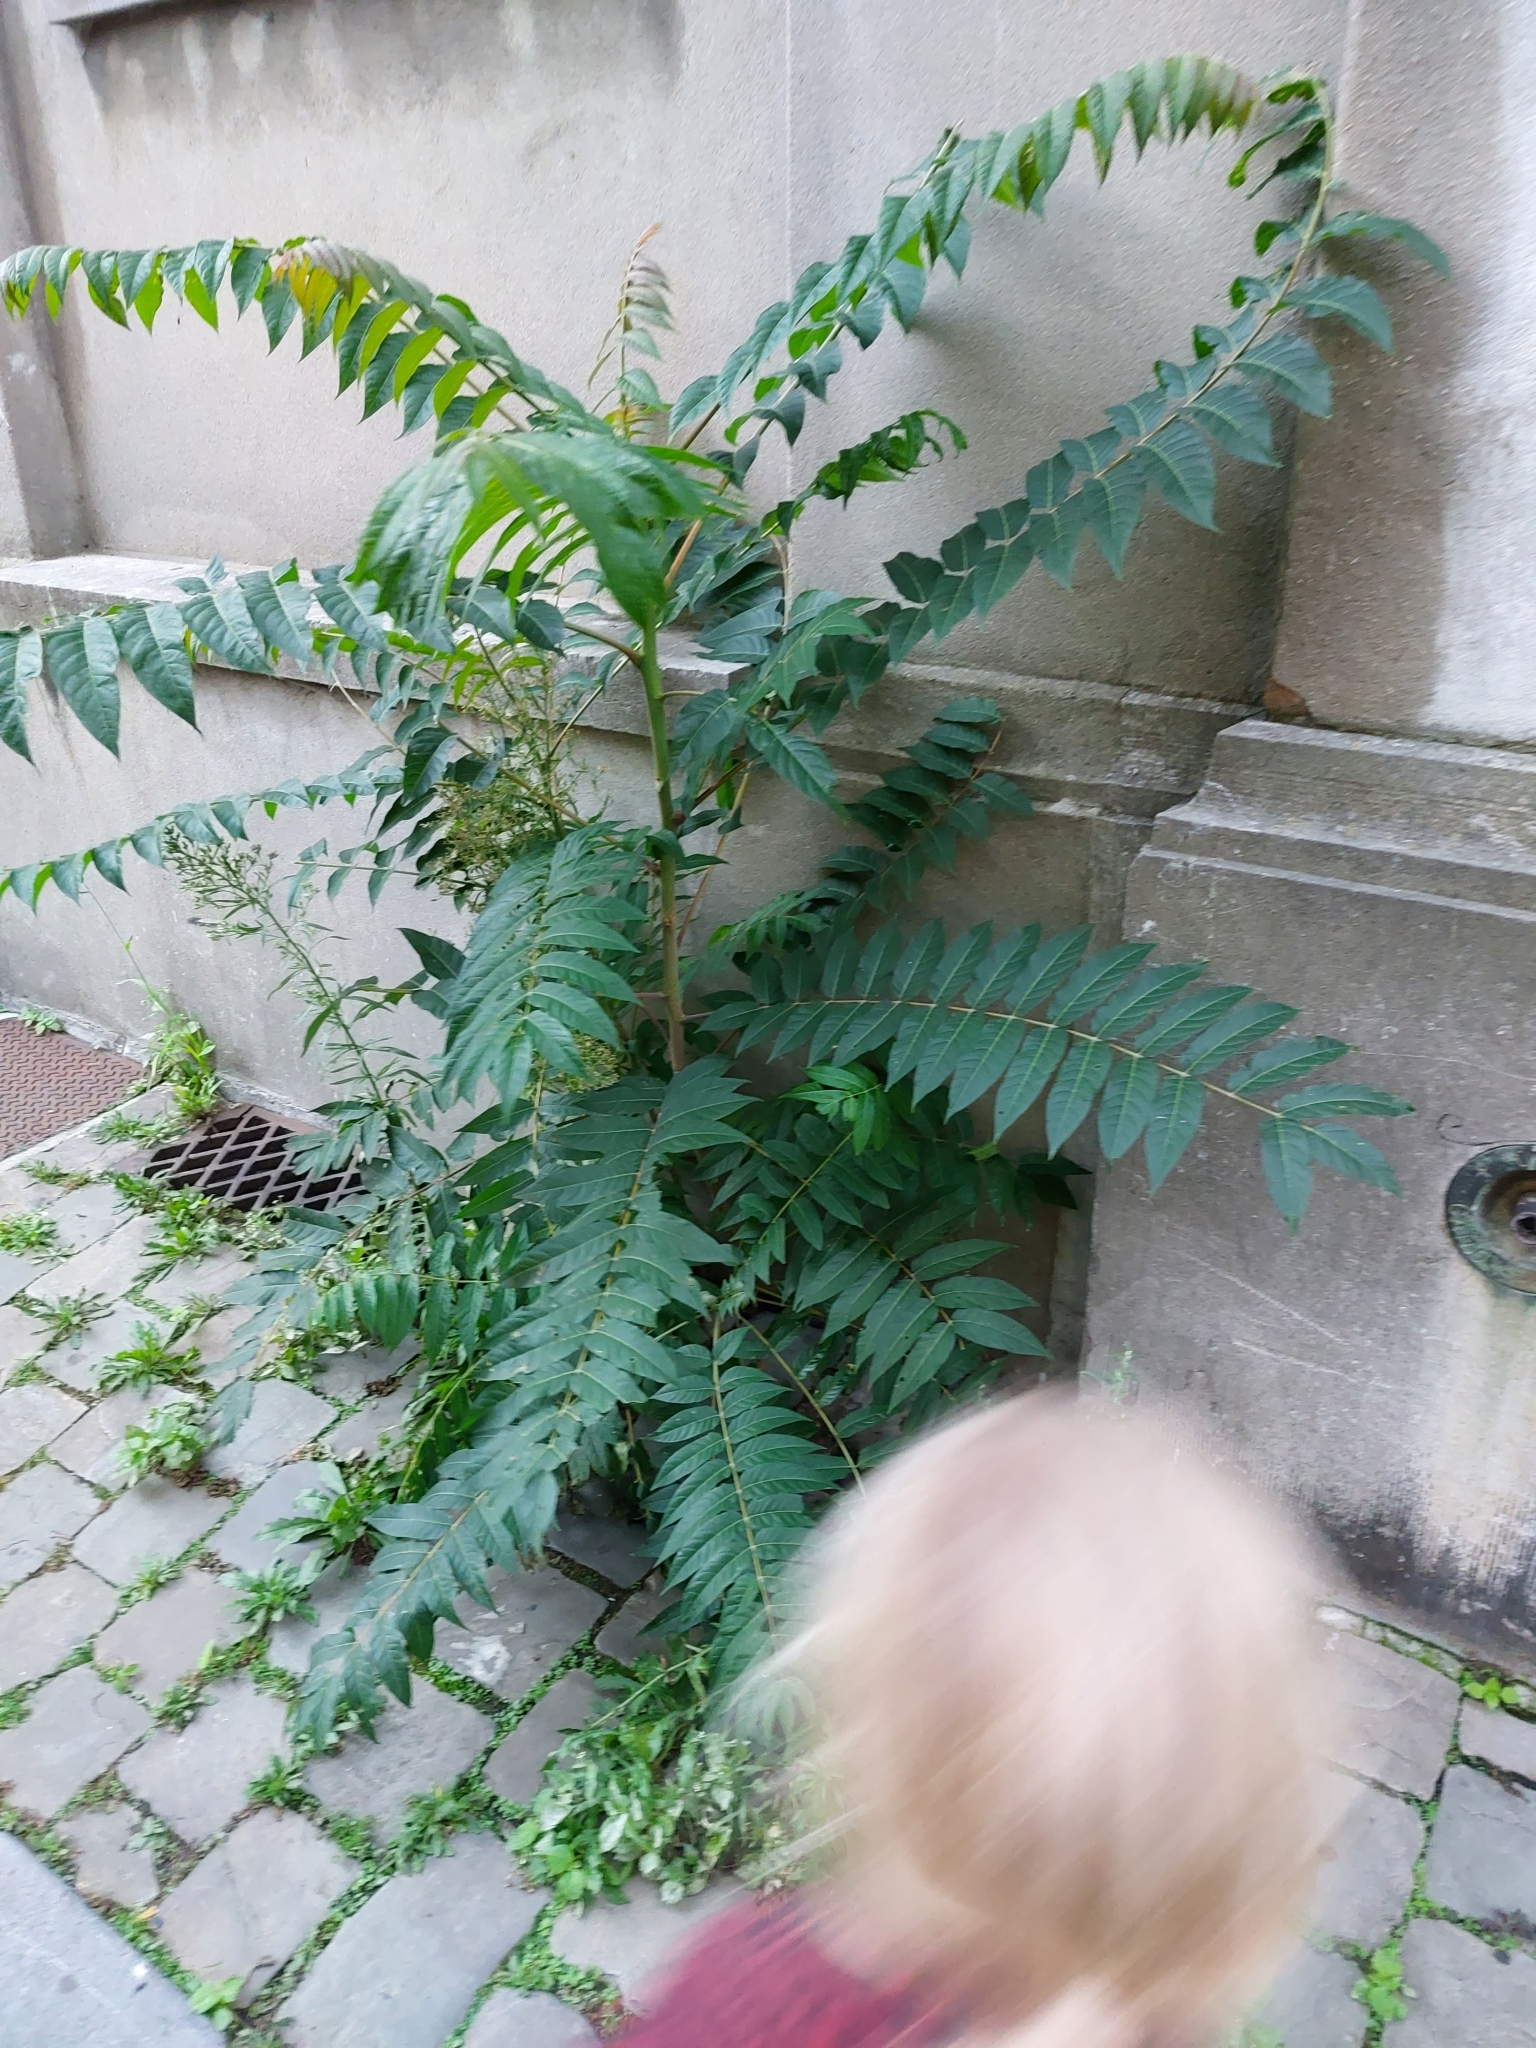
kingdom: Plantae
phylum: Tracheophyta
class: Magnoliopsida
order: Sapindales
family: Simaroubaceae
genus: Ailanthus
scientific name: Ailanthus altissima
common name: Tree-of-heaven
